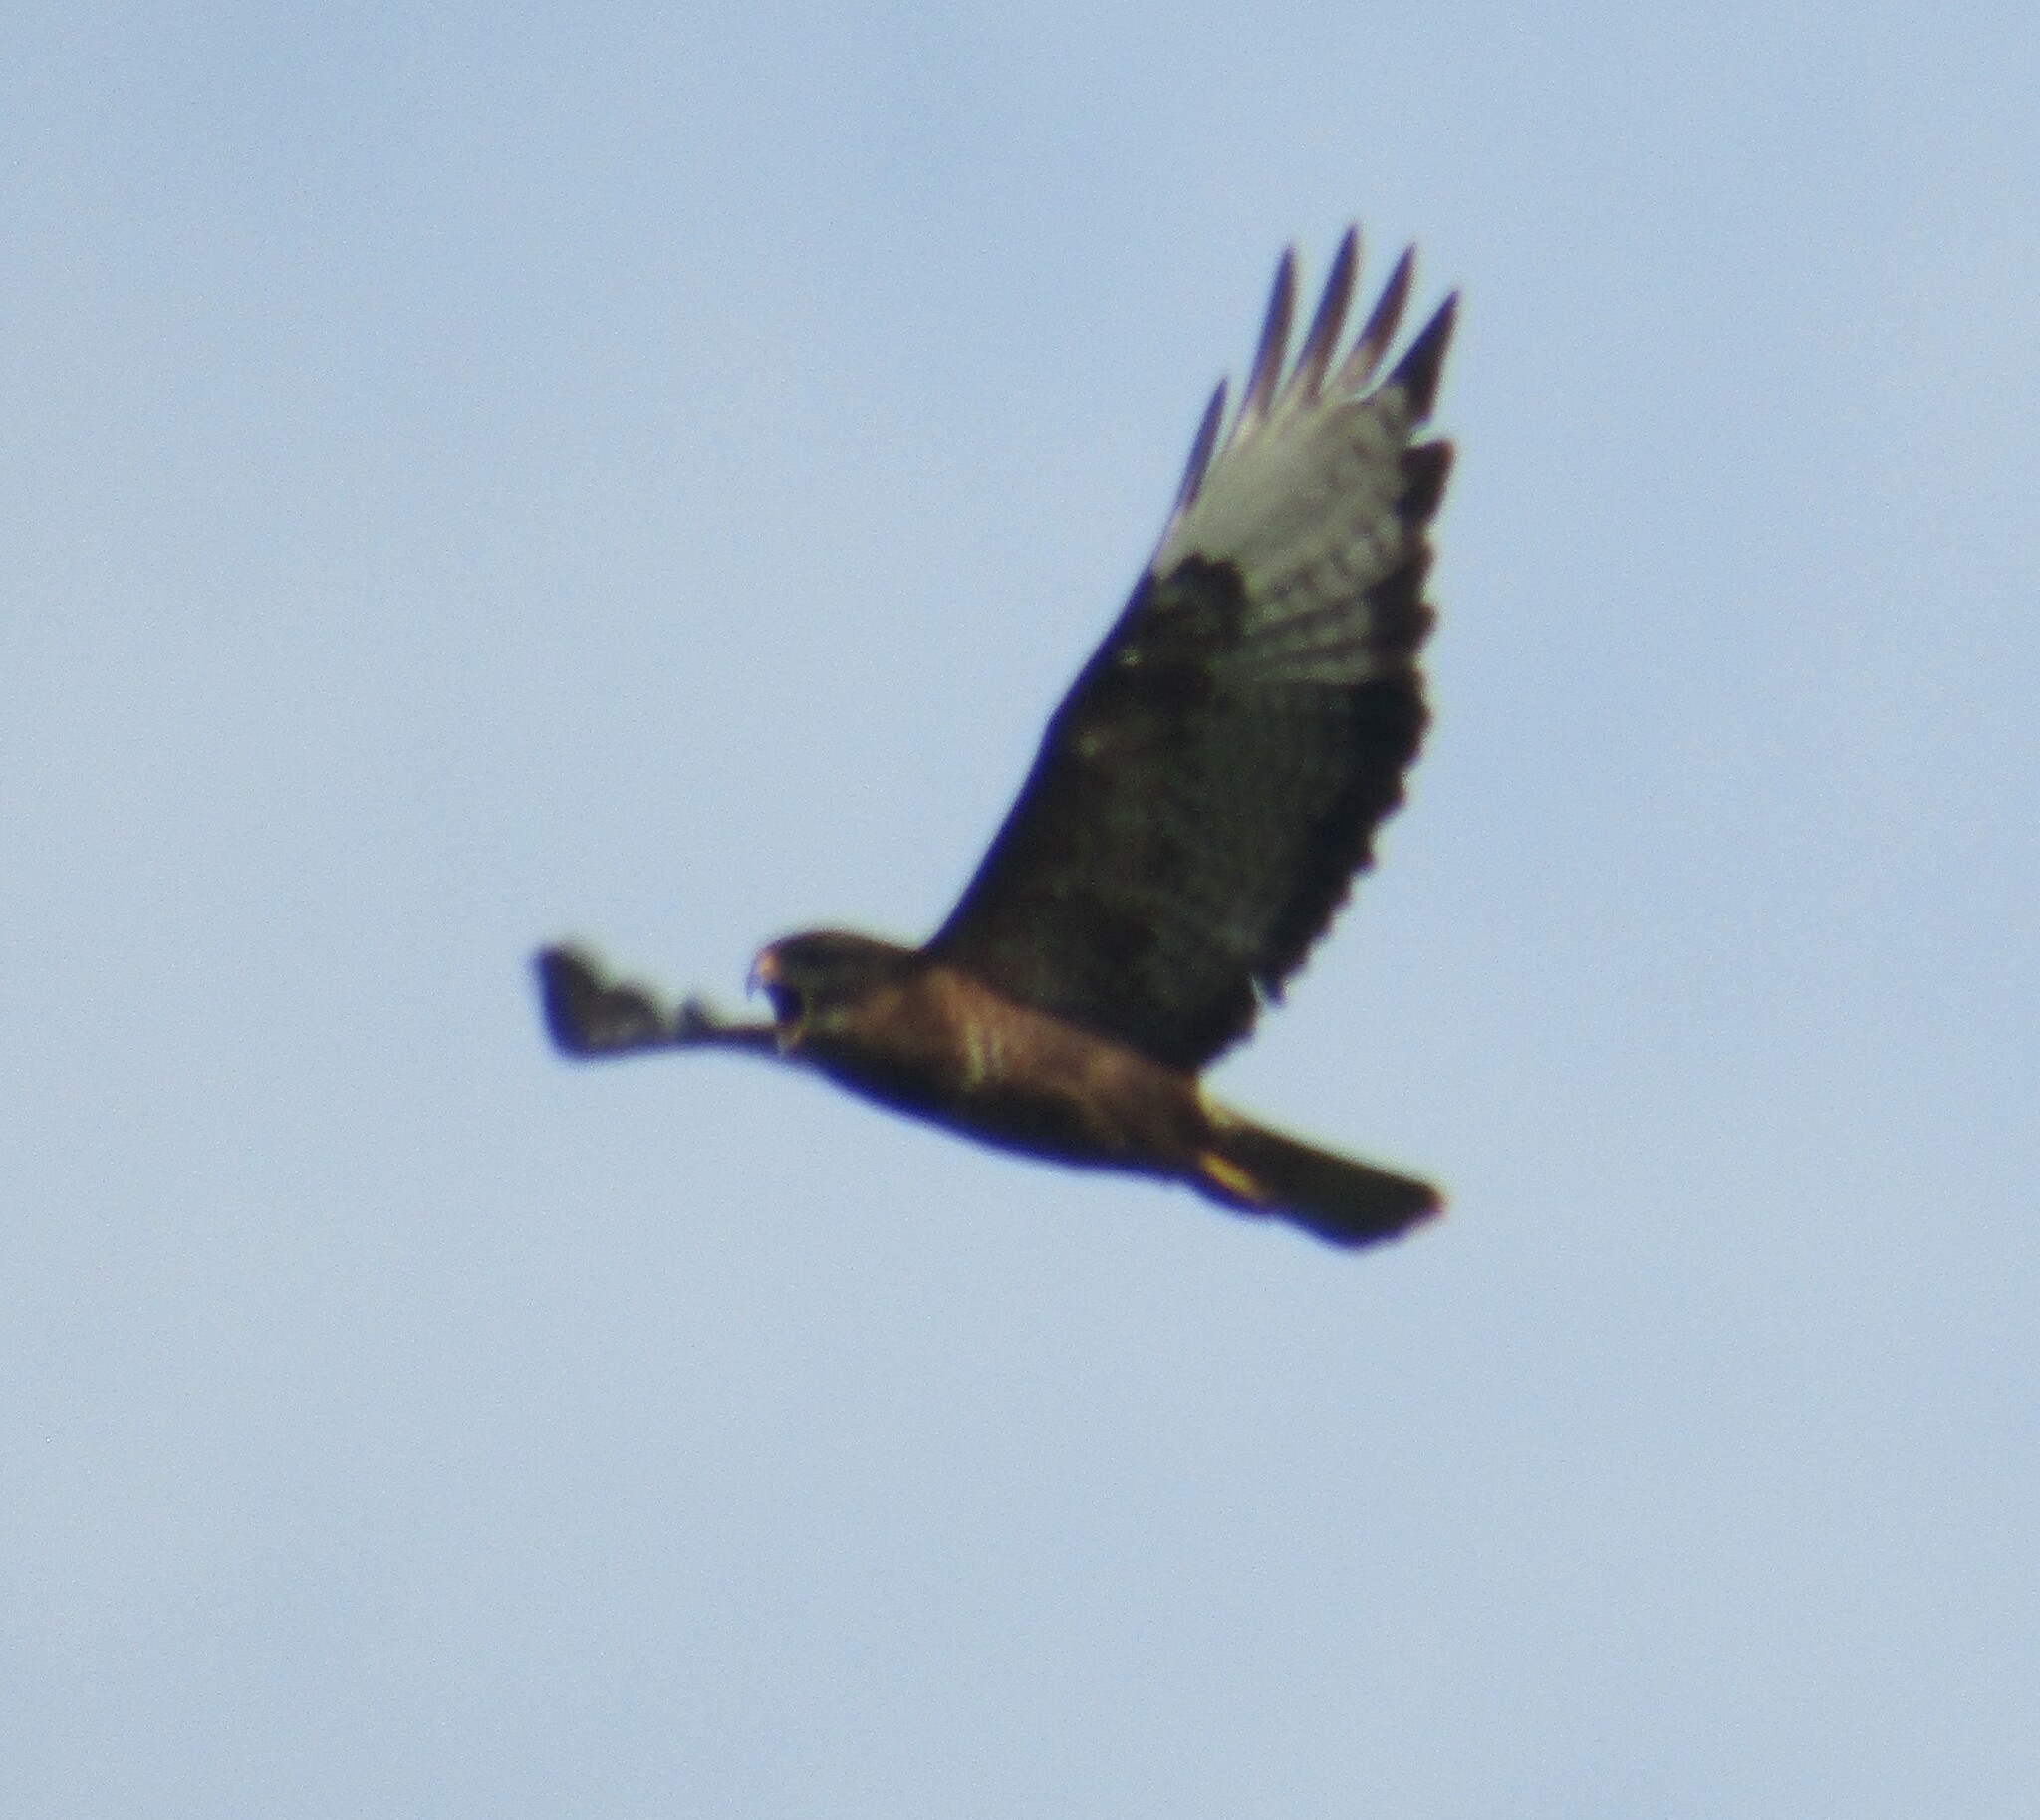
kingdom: Animalia
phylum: Chordata
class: Aves
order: Accipitriformes
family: Accipitridae
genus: Buteo
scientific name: Buteo buteo
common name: Common buzzard
